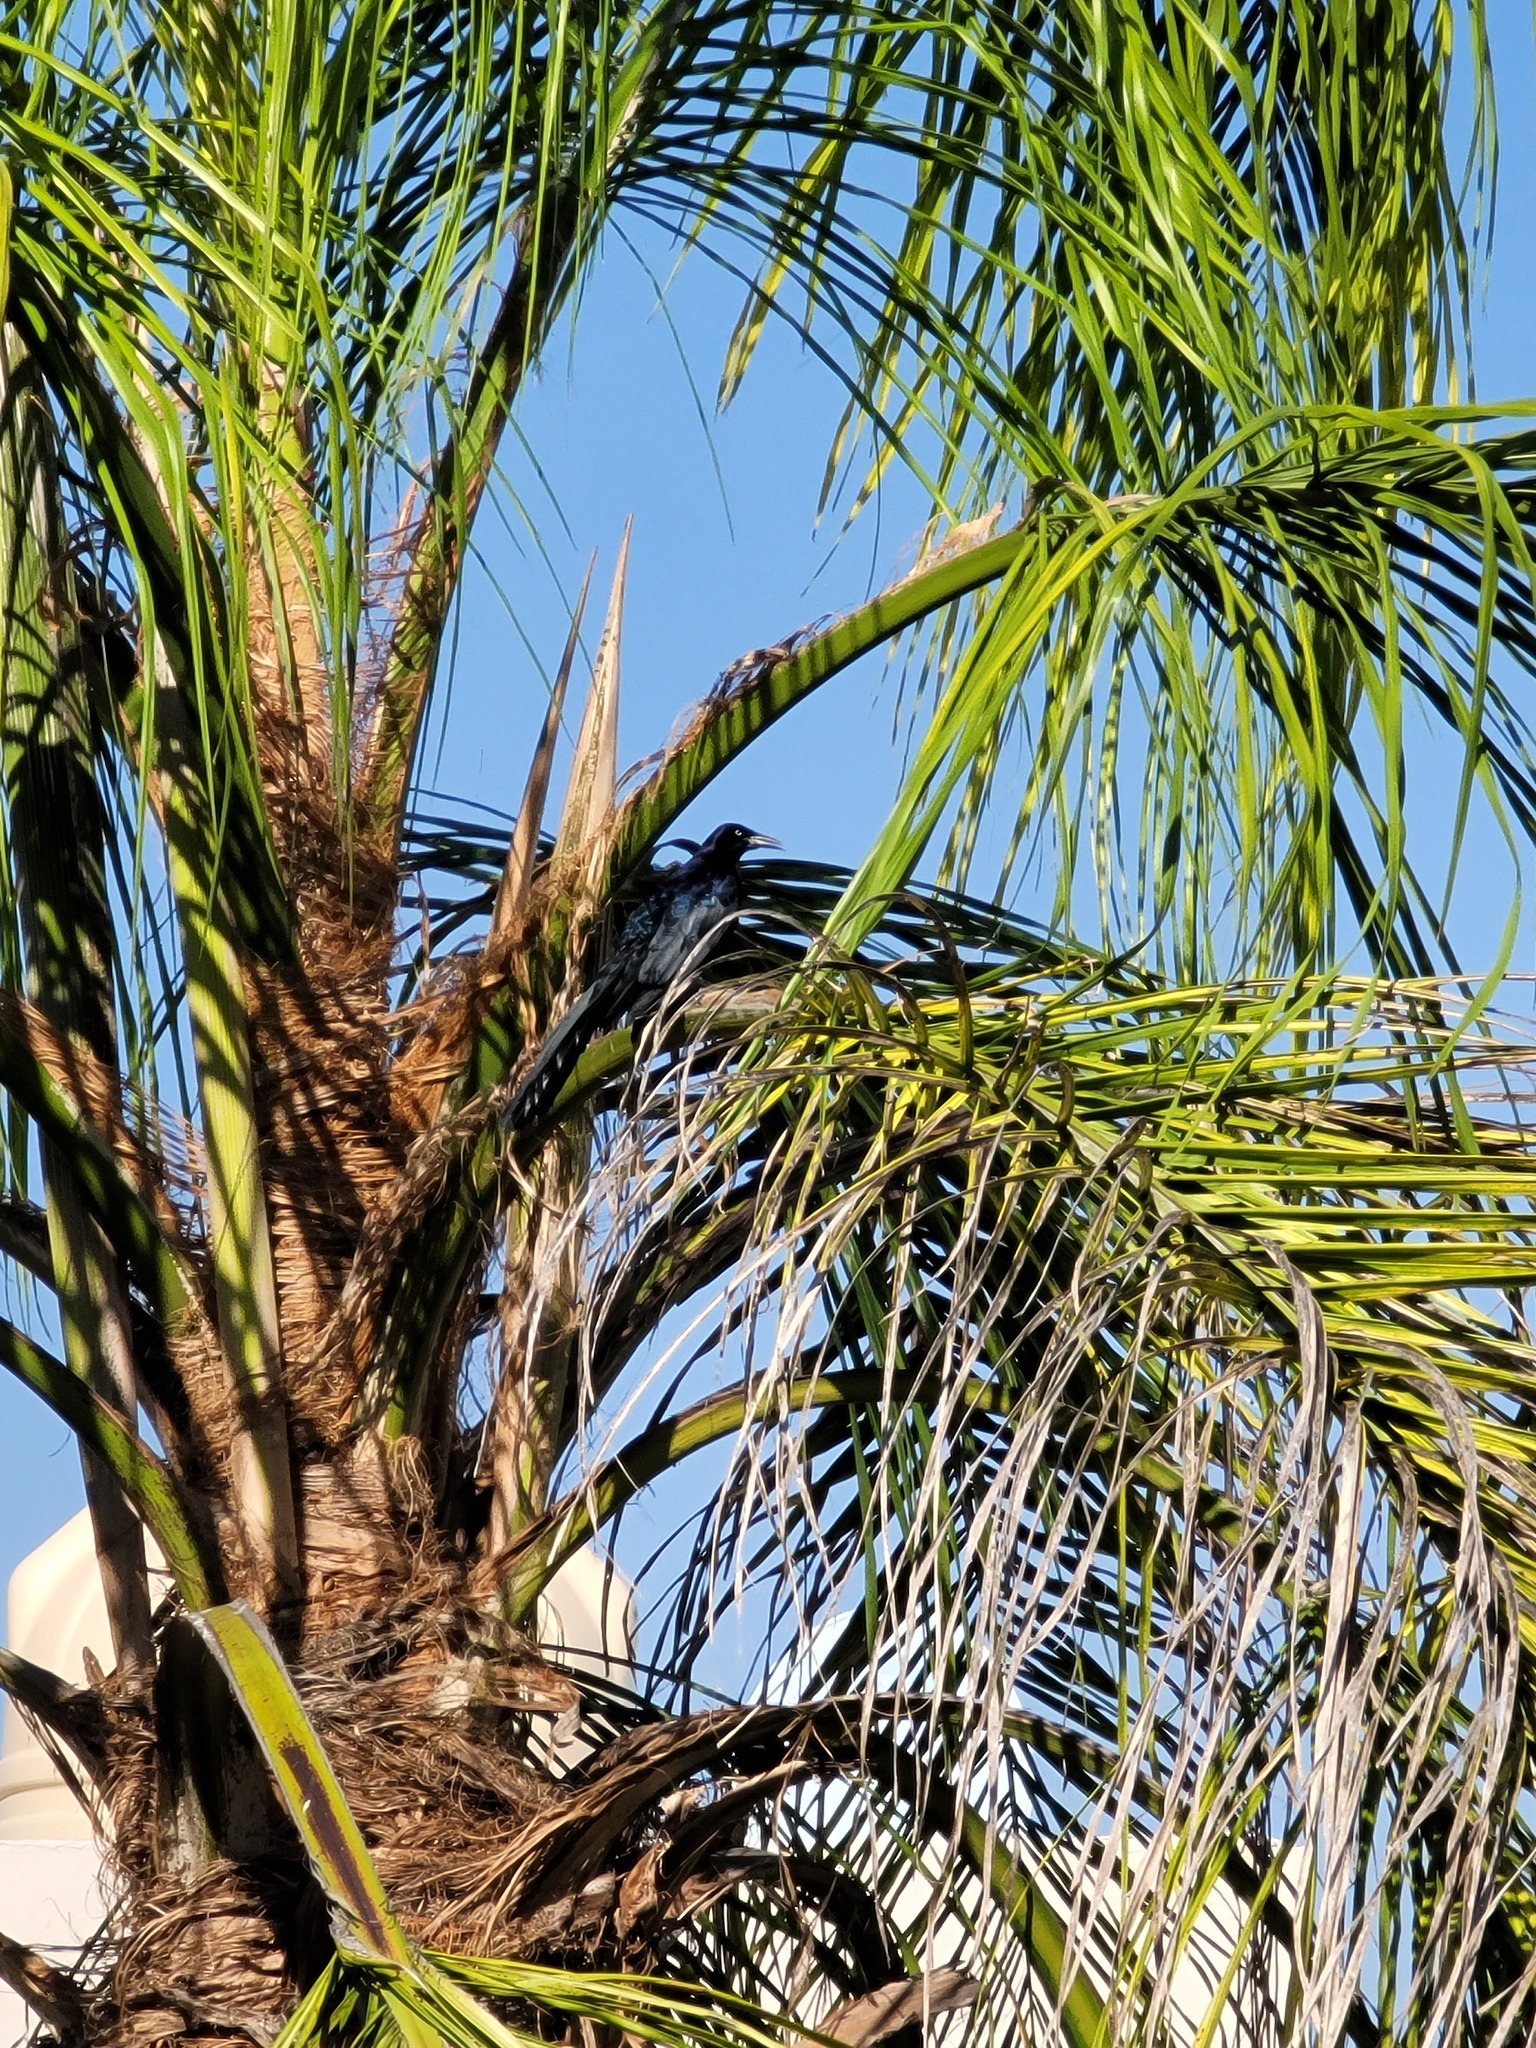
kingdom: Animalia
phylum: Chordata
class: Aves
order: Passeriformes
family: Icteridae
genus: Quiscalus
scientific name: Quiscalus mexicanus
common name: Great-tailed grackle
